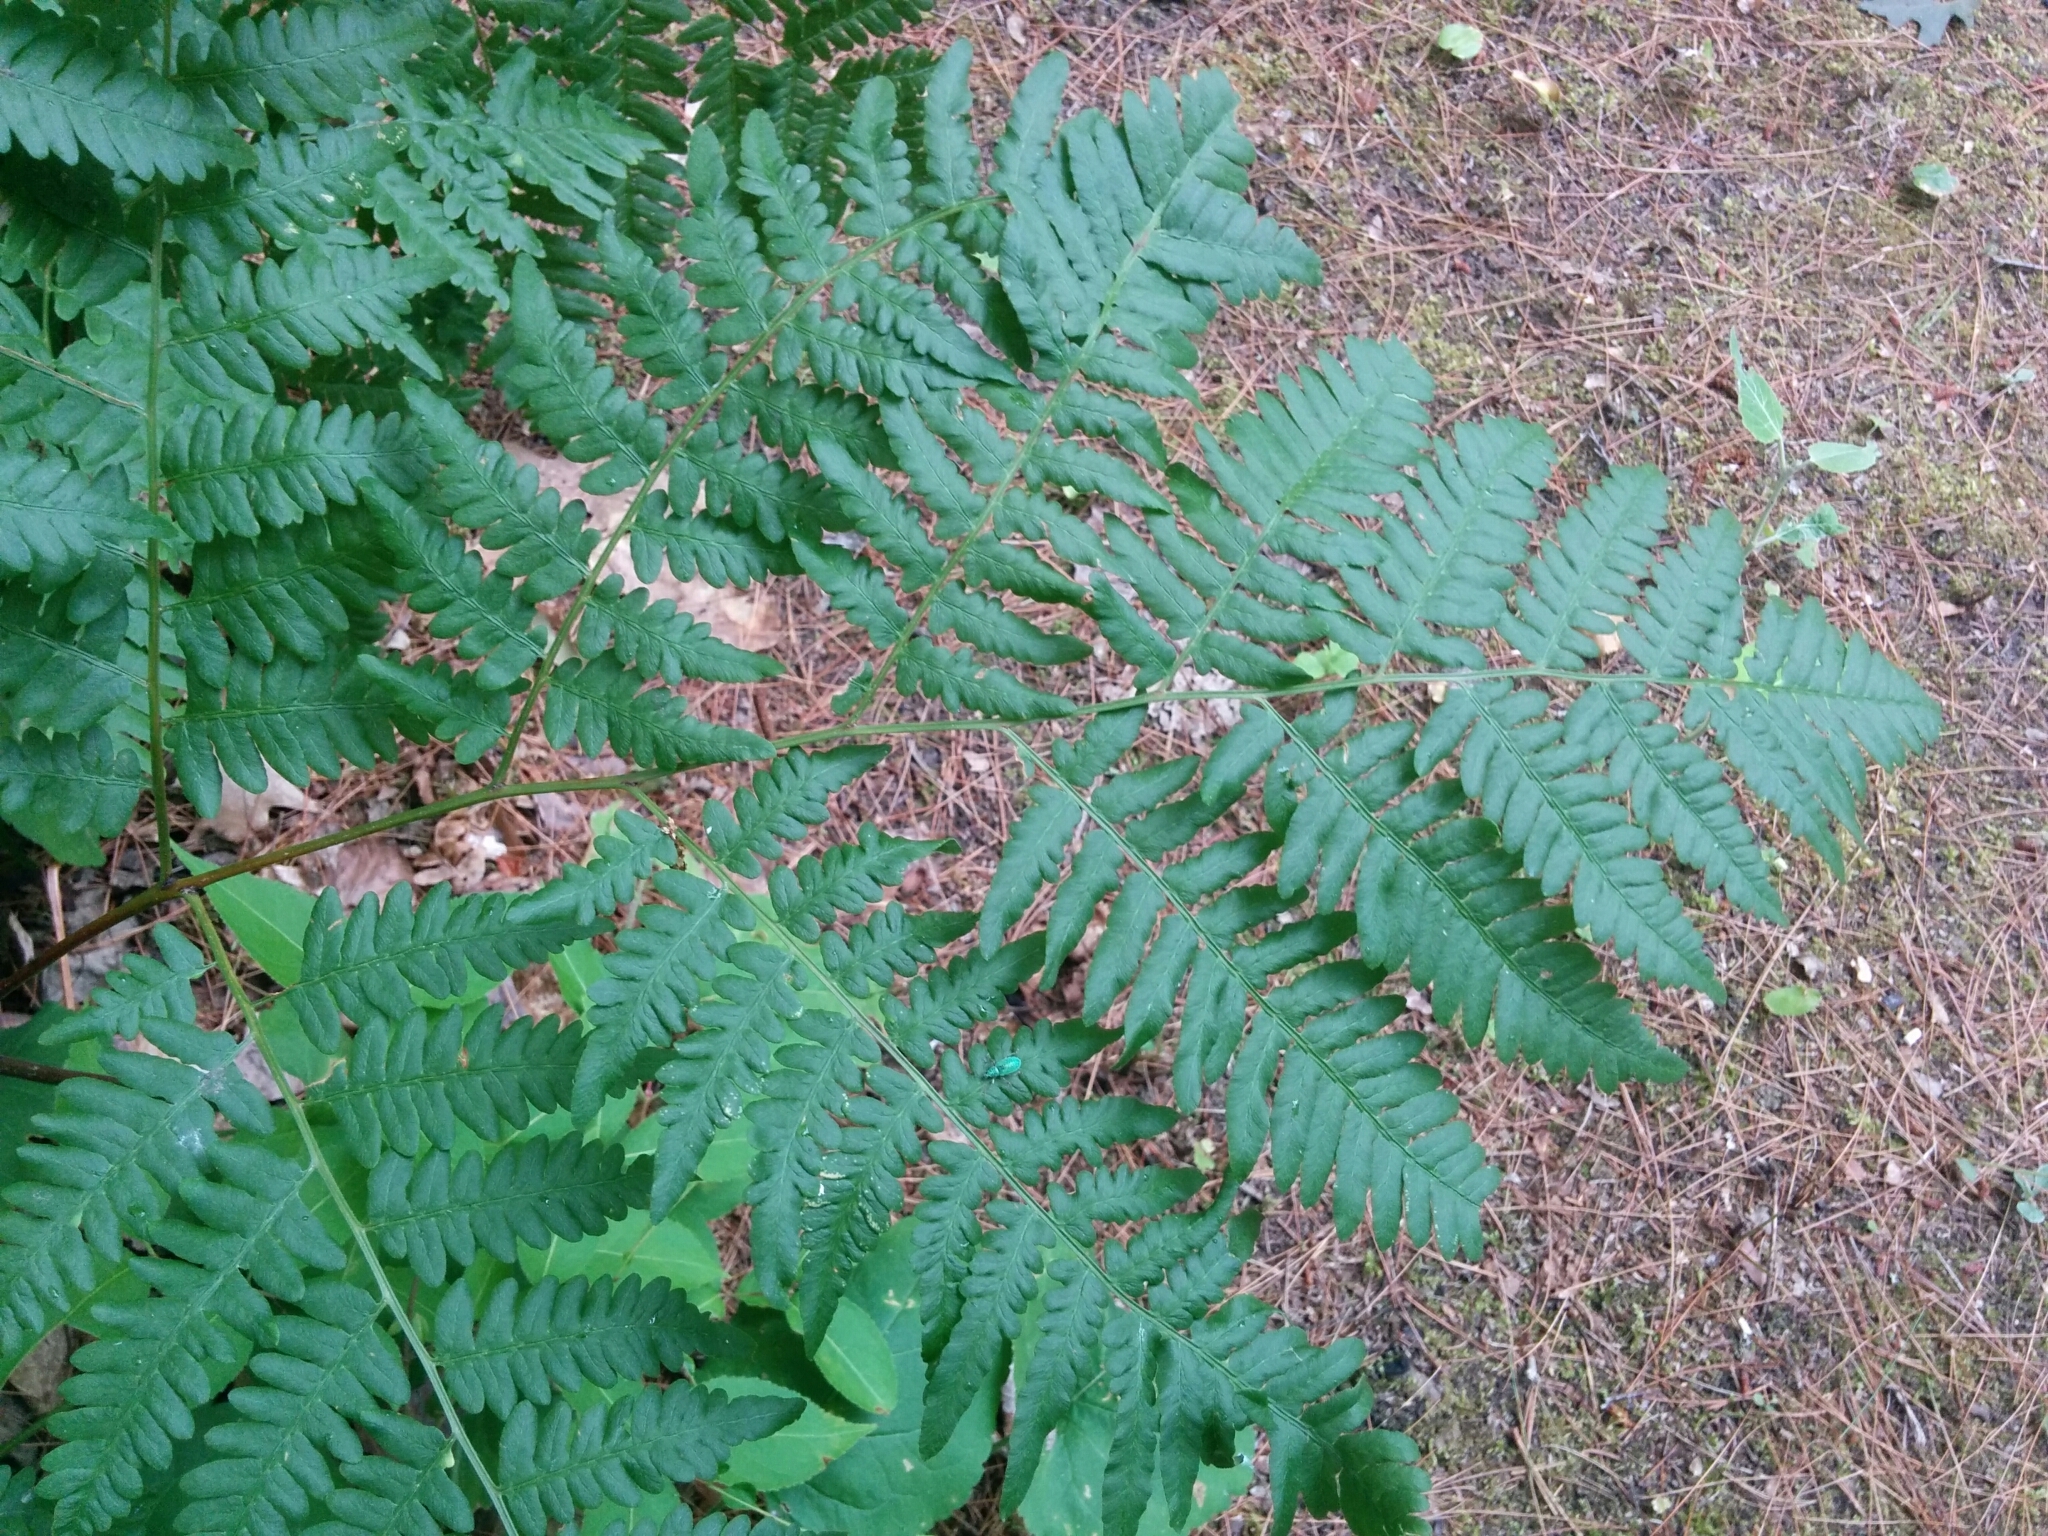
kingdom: Plantae
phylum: Tracheophyta
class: Polypodiopsida
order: Polypodiales
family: Dennstaedtiaceae
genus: Pteridium
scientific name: Pteridium aquilinum
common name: Bracken
